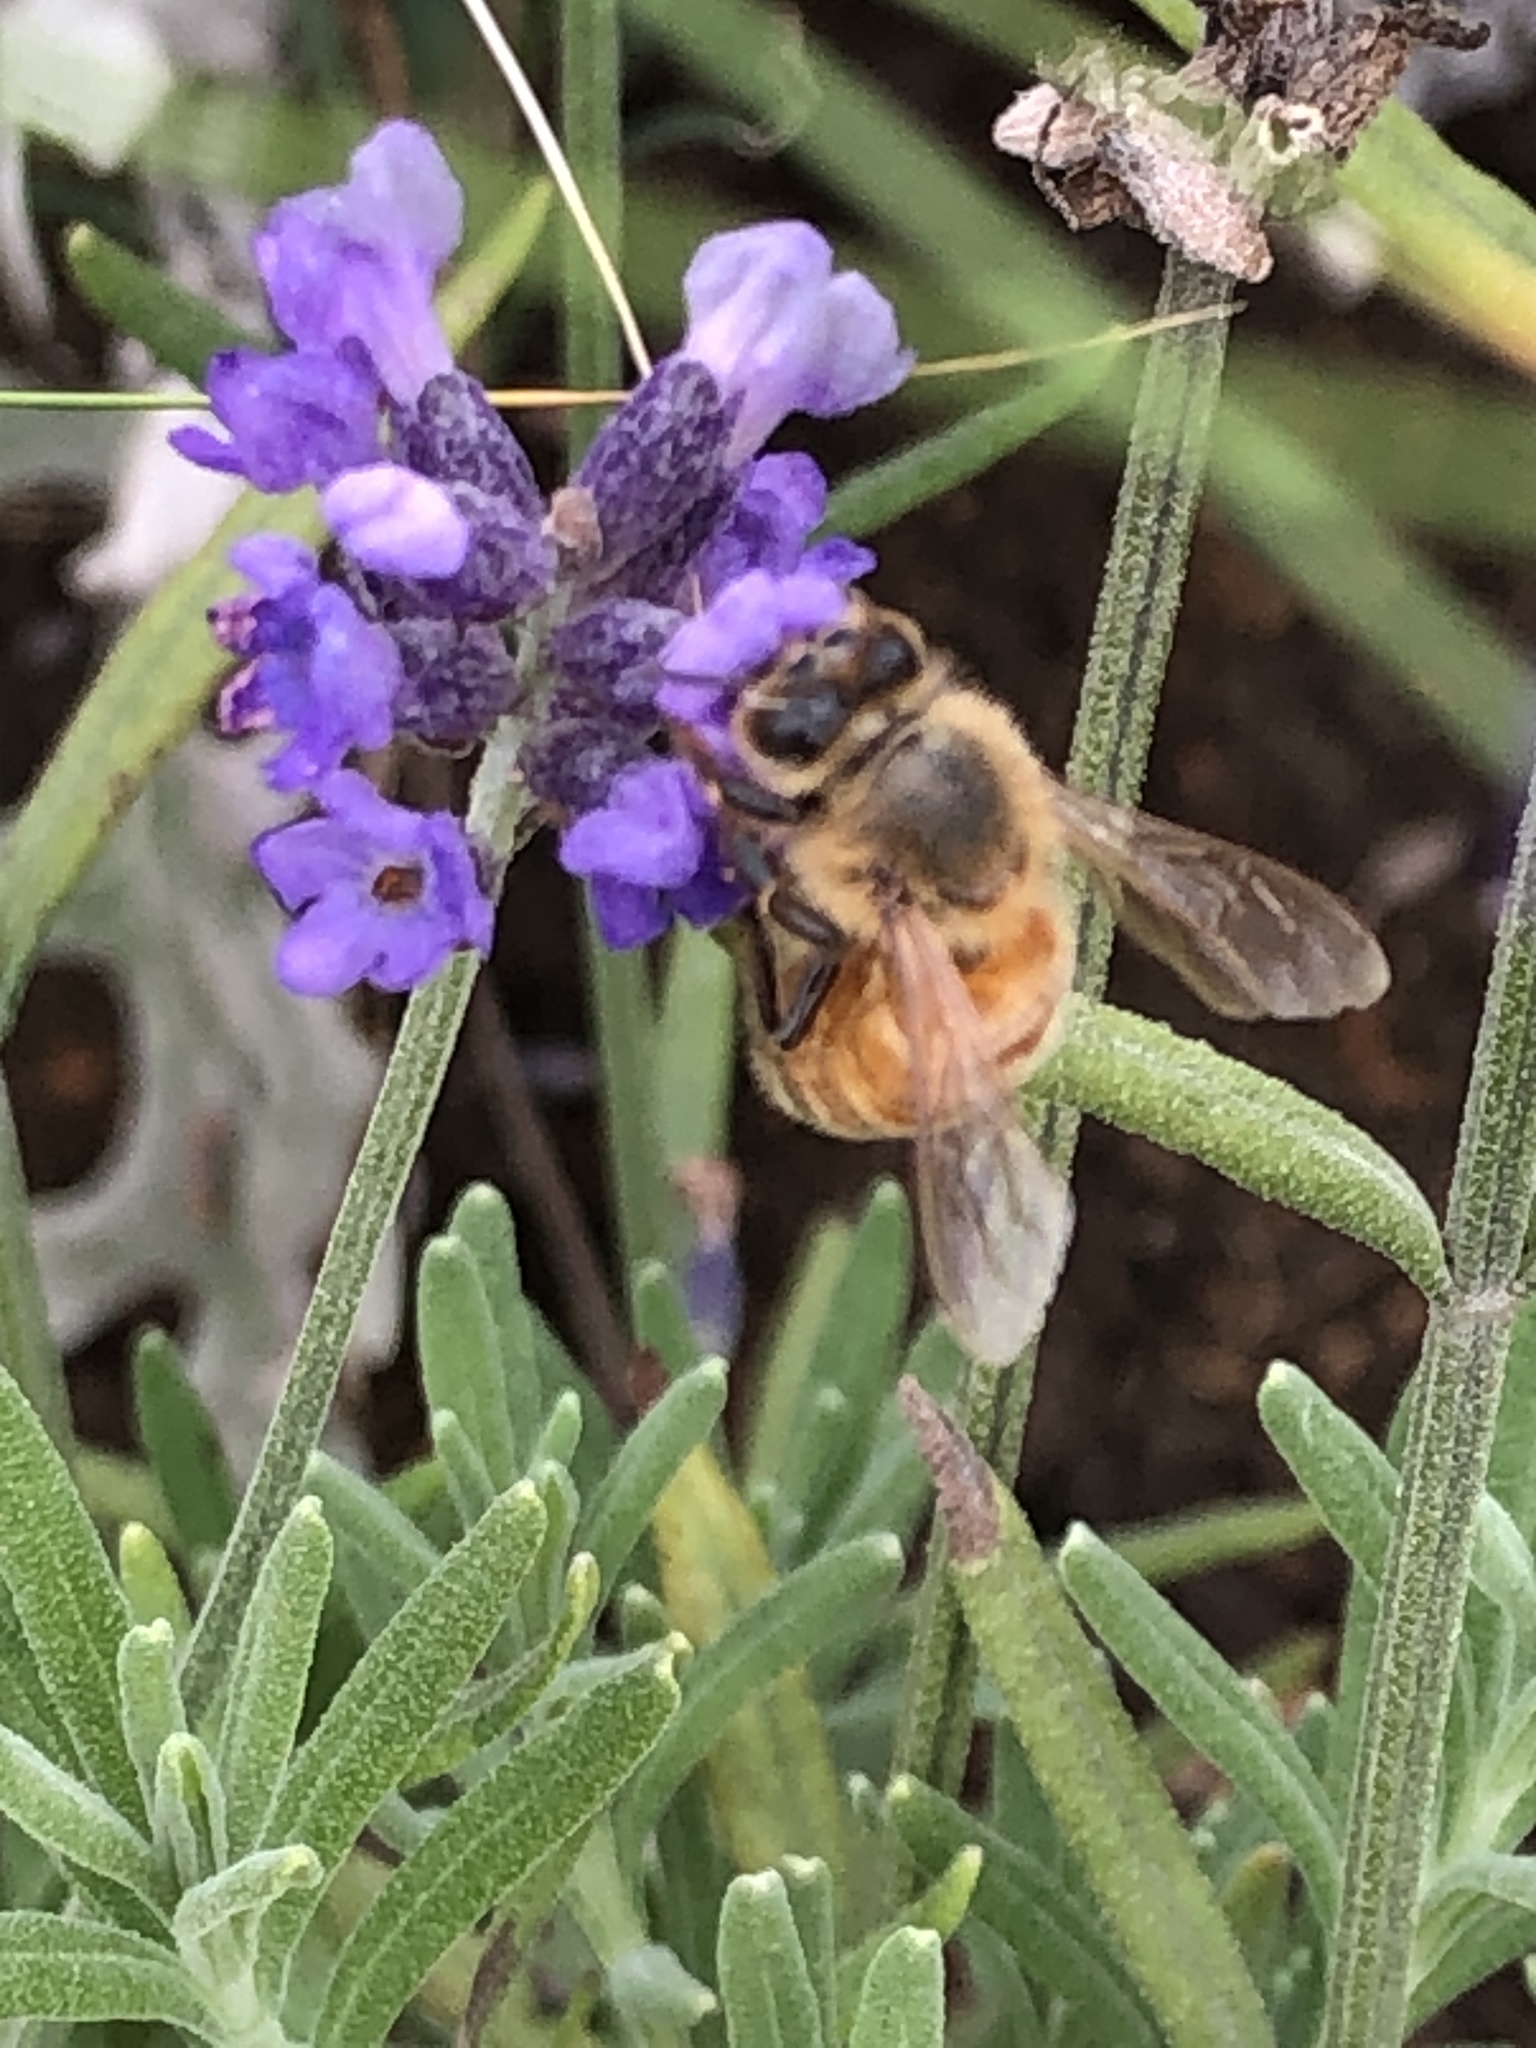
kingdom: Animalia
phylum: Arthropoda
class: Insecta
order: Hymenoptera
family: Apidae
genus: Apis
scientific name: Apis mellifera
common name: Honey bee
